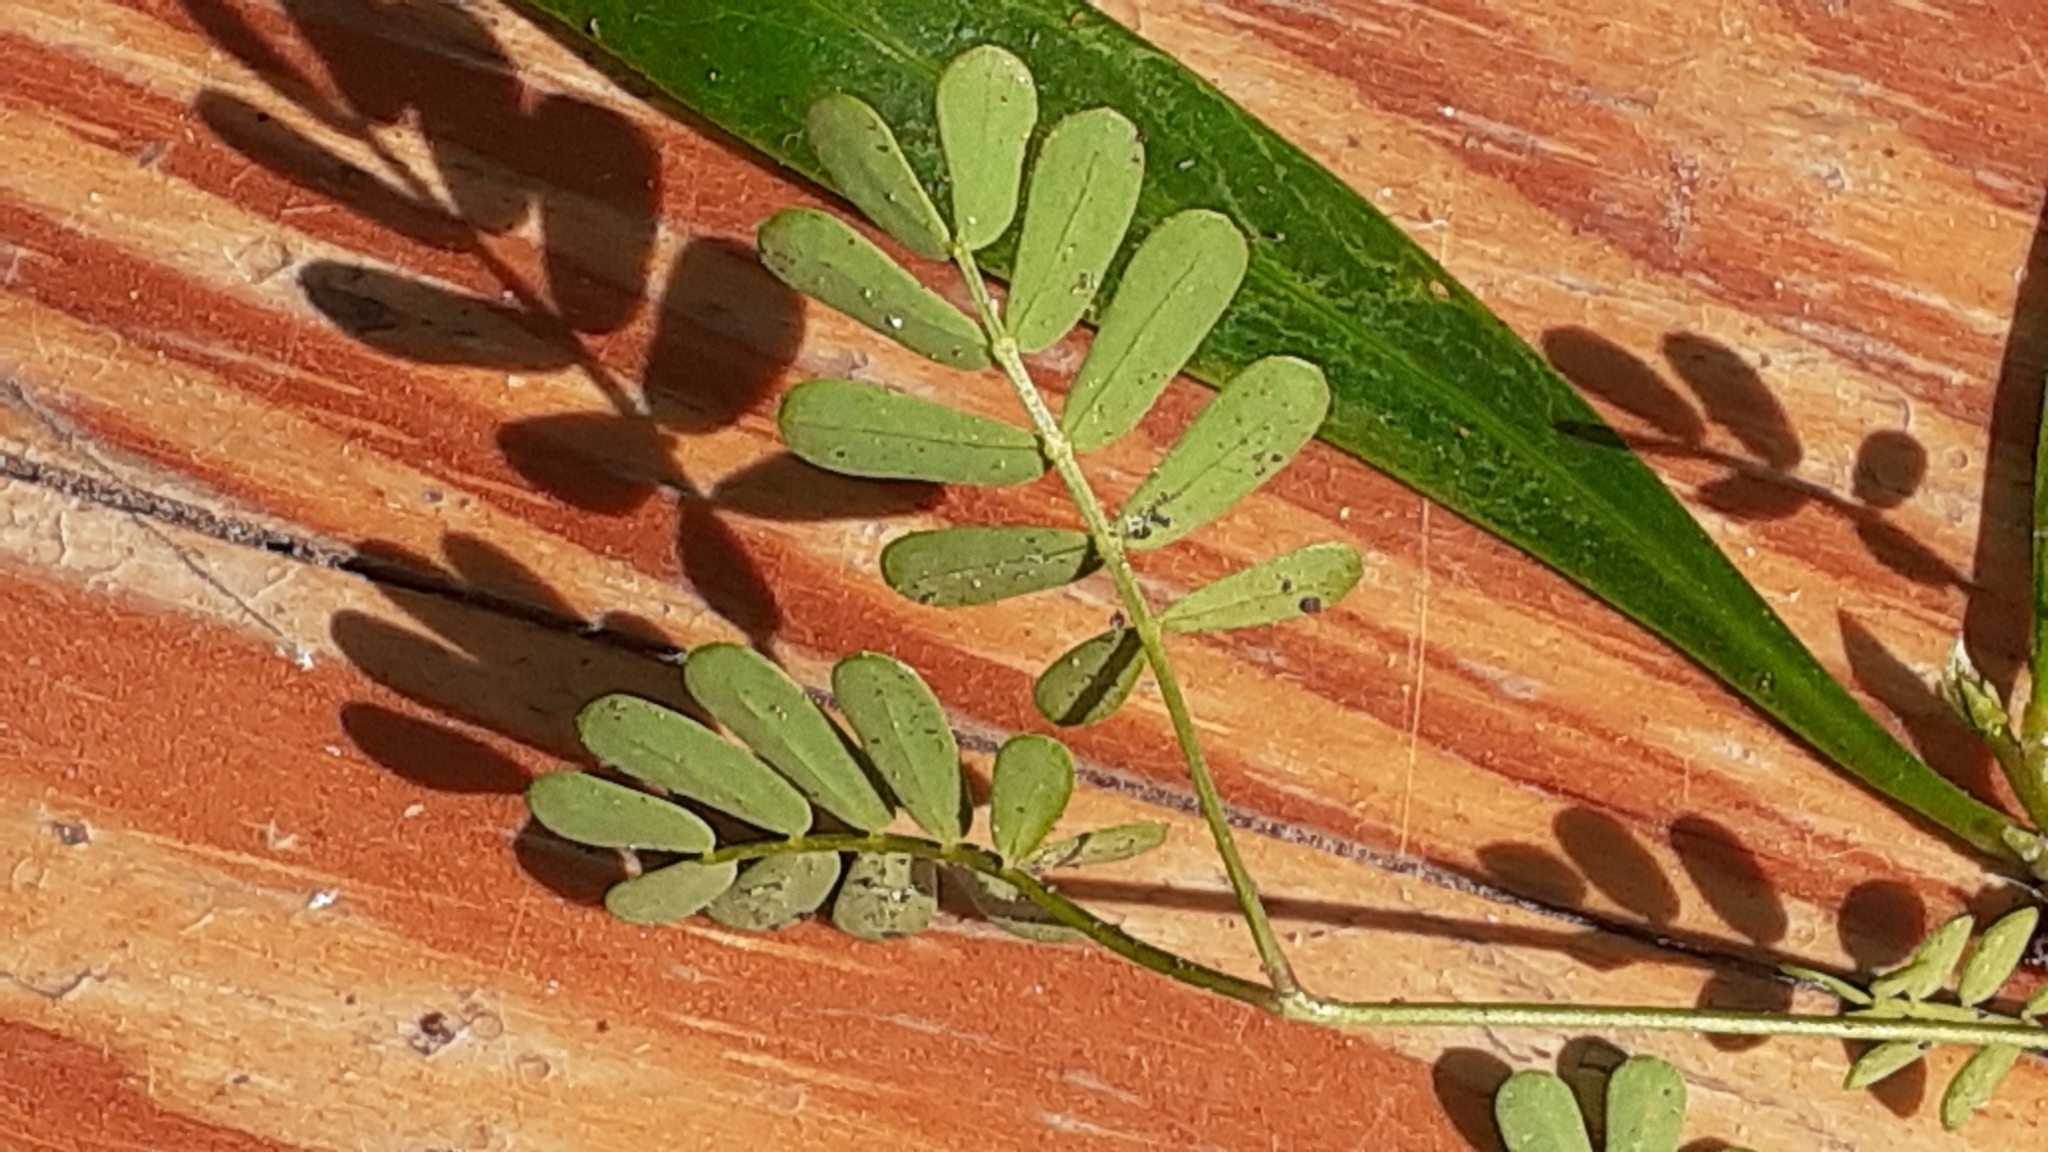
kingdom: Plantae
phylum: Tracheophyta
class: Magnoliopsida
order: Fabales
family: Fabaceae
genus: Acacia
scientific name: Acacia saligna
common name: Orange wattle
